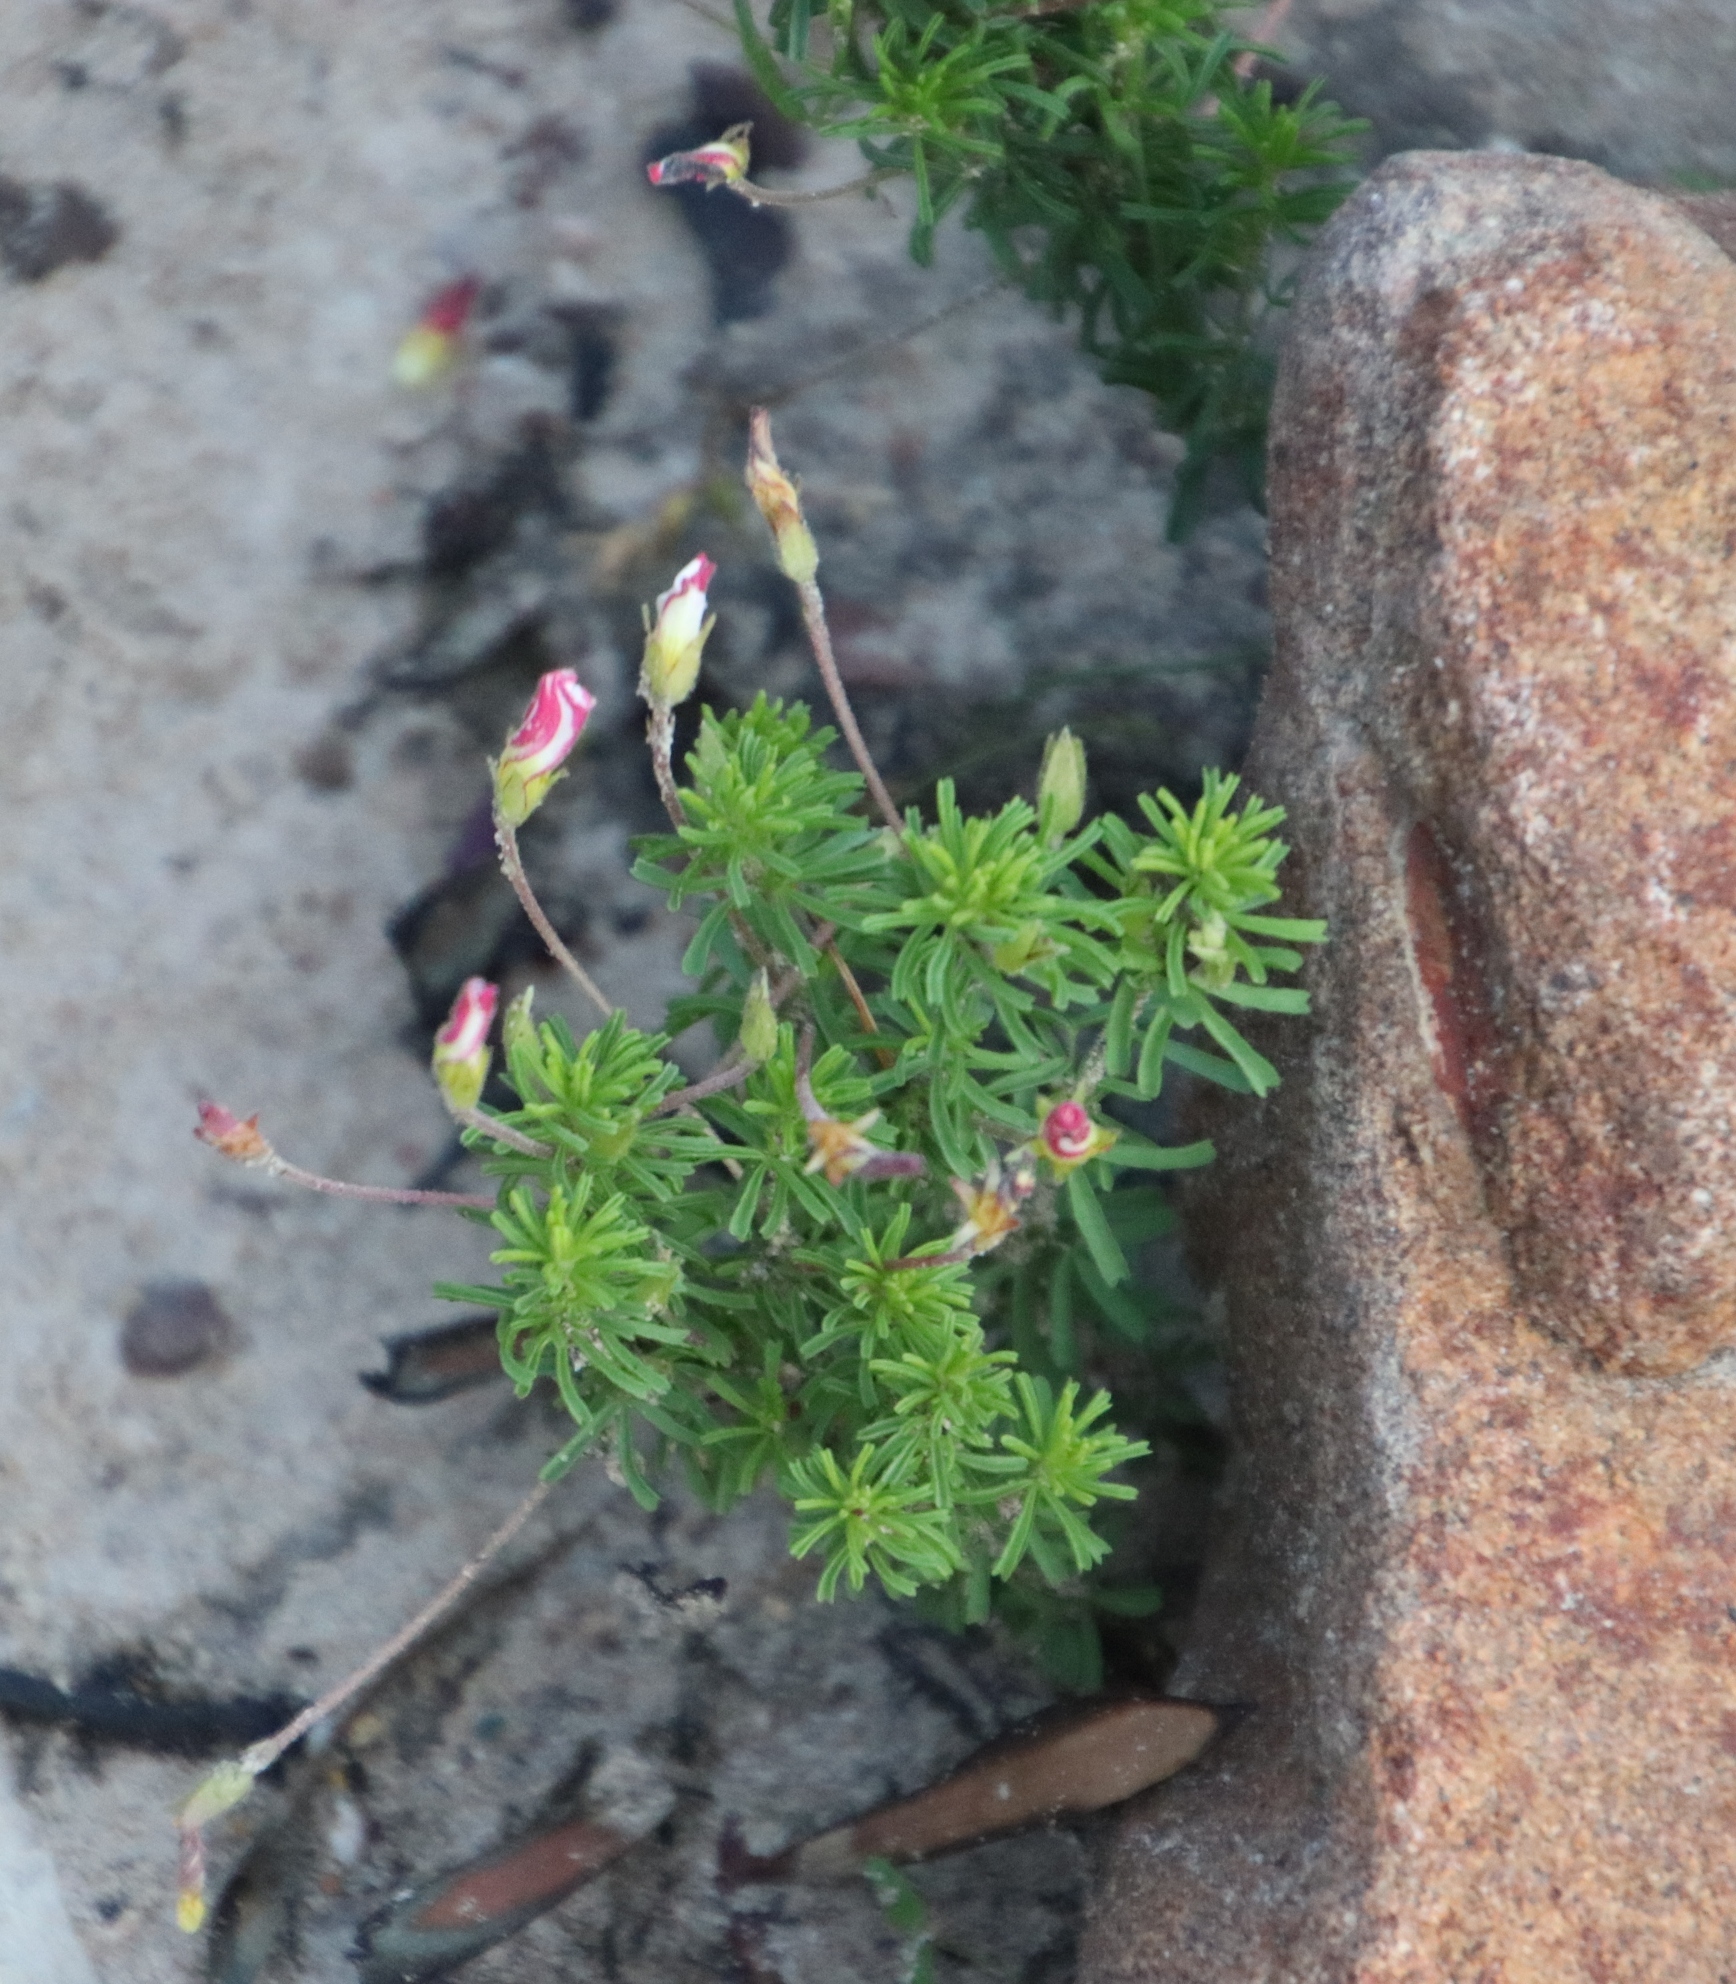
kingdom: Plantae
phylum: Tracheophyta
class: Magnoliopsida
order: Oxalidales
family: Oxalidaceae
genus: Oxalis
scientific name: Oxalis tenuifolia
